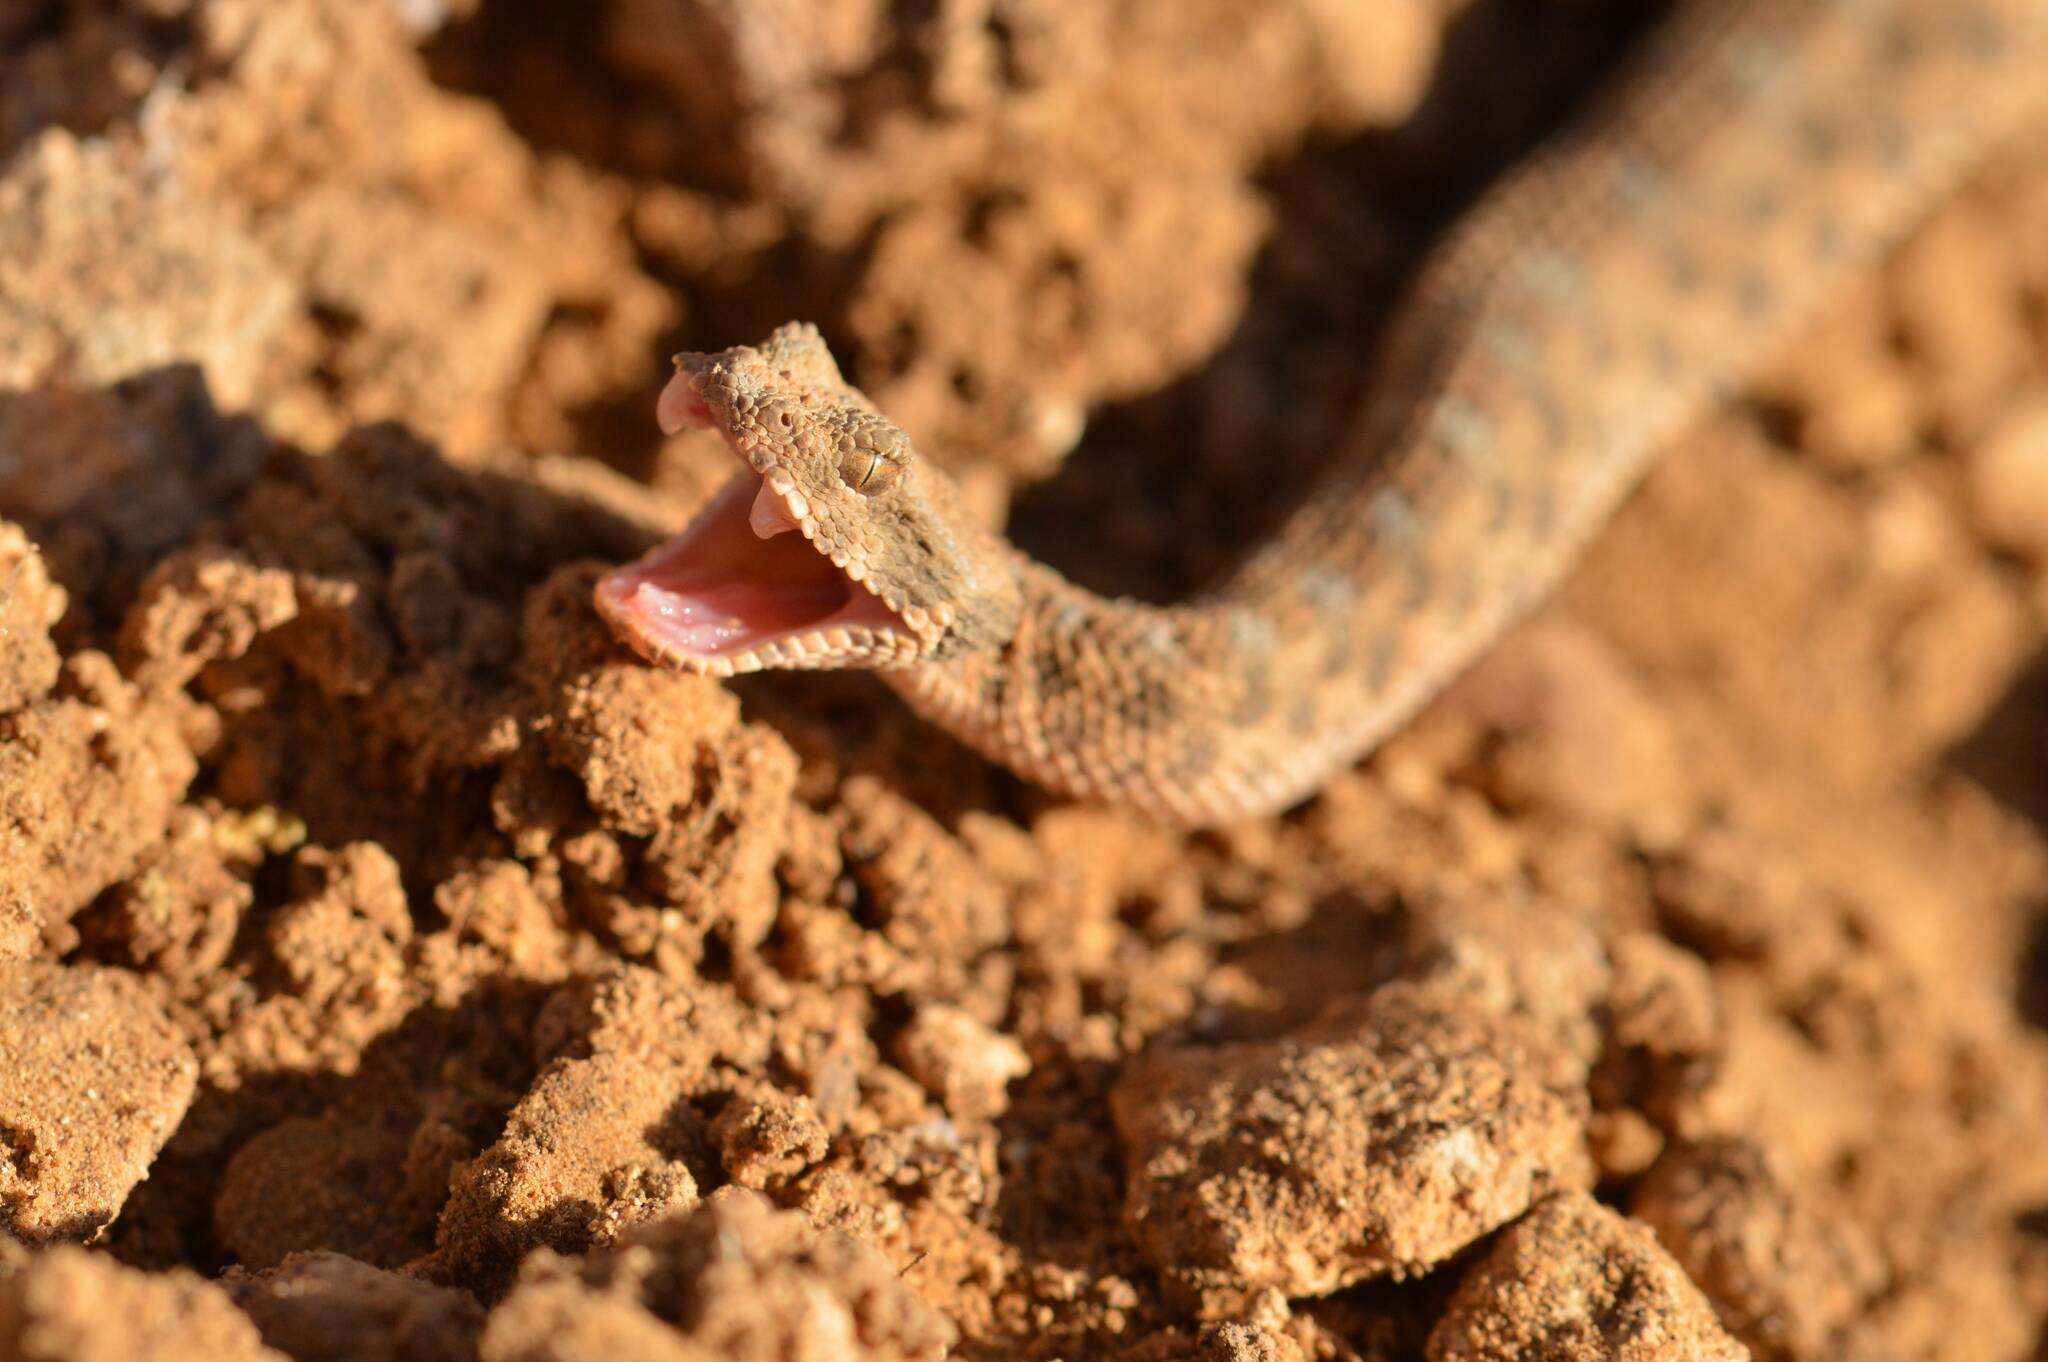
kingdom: Animalia
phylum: Chordata
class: Squamata
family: Viperidae
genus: Cerastes
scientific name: Cerastes cerastes
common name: Desert horned viper
